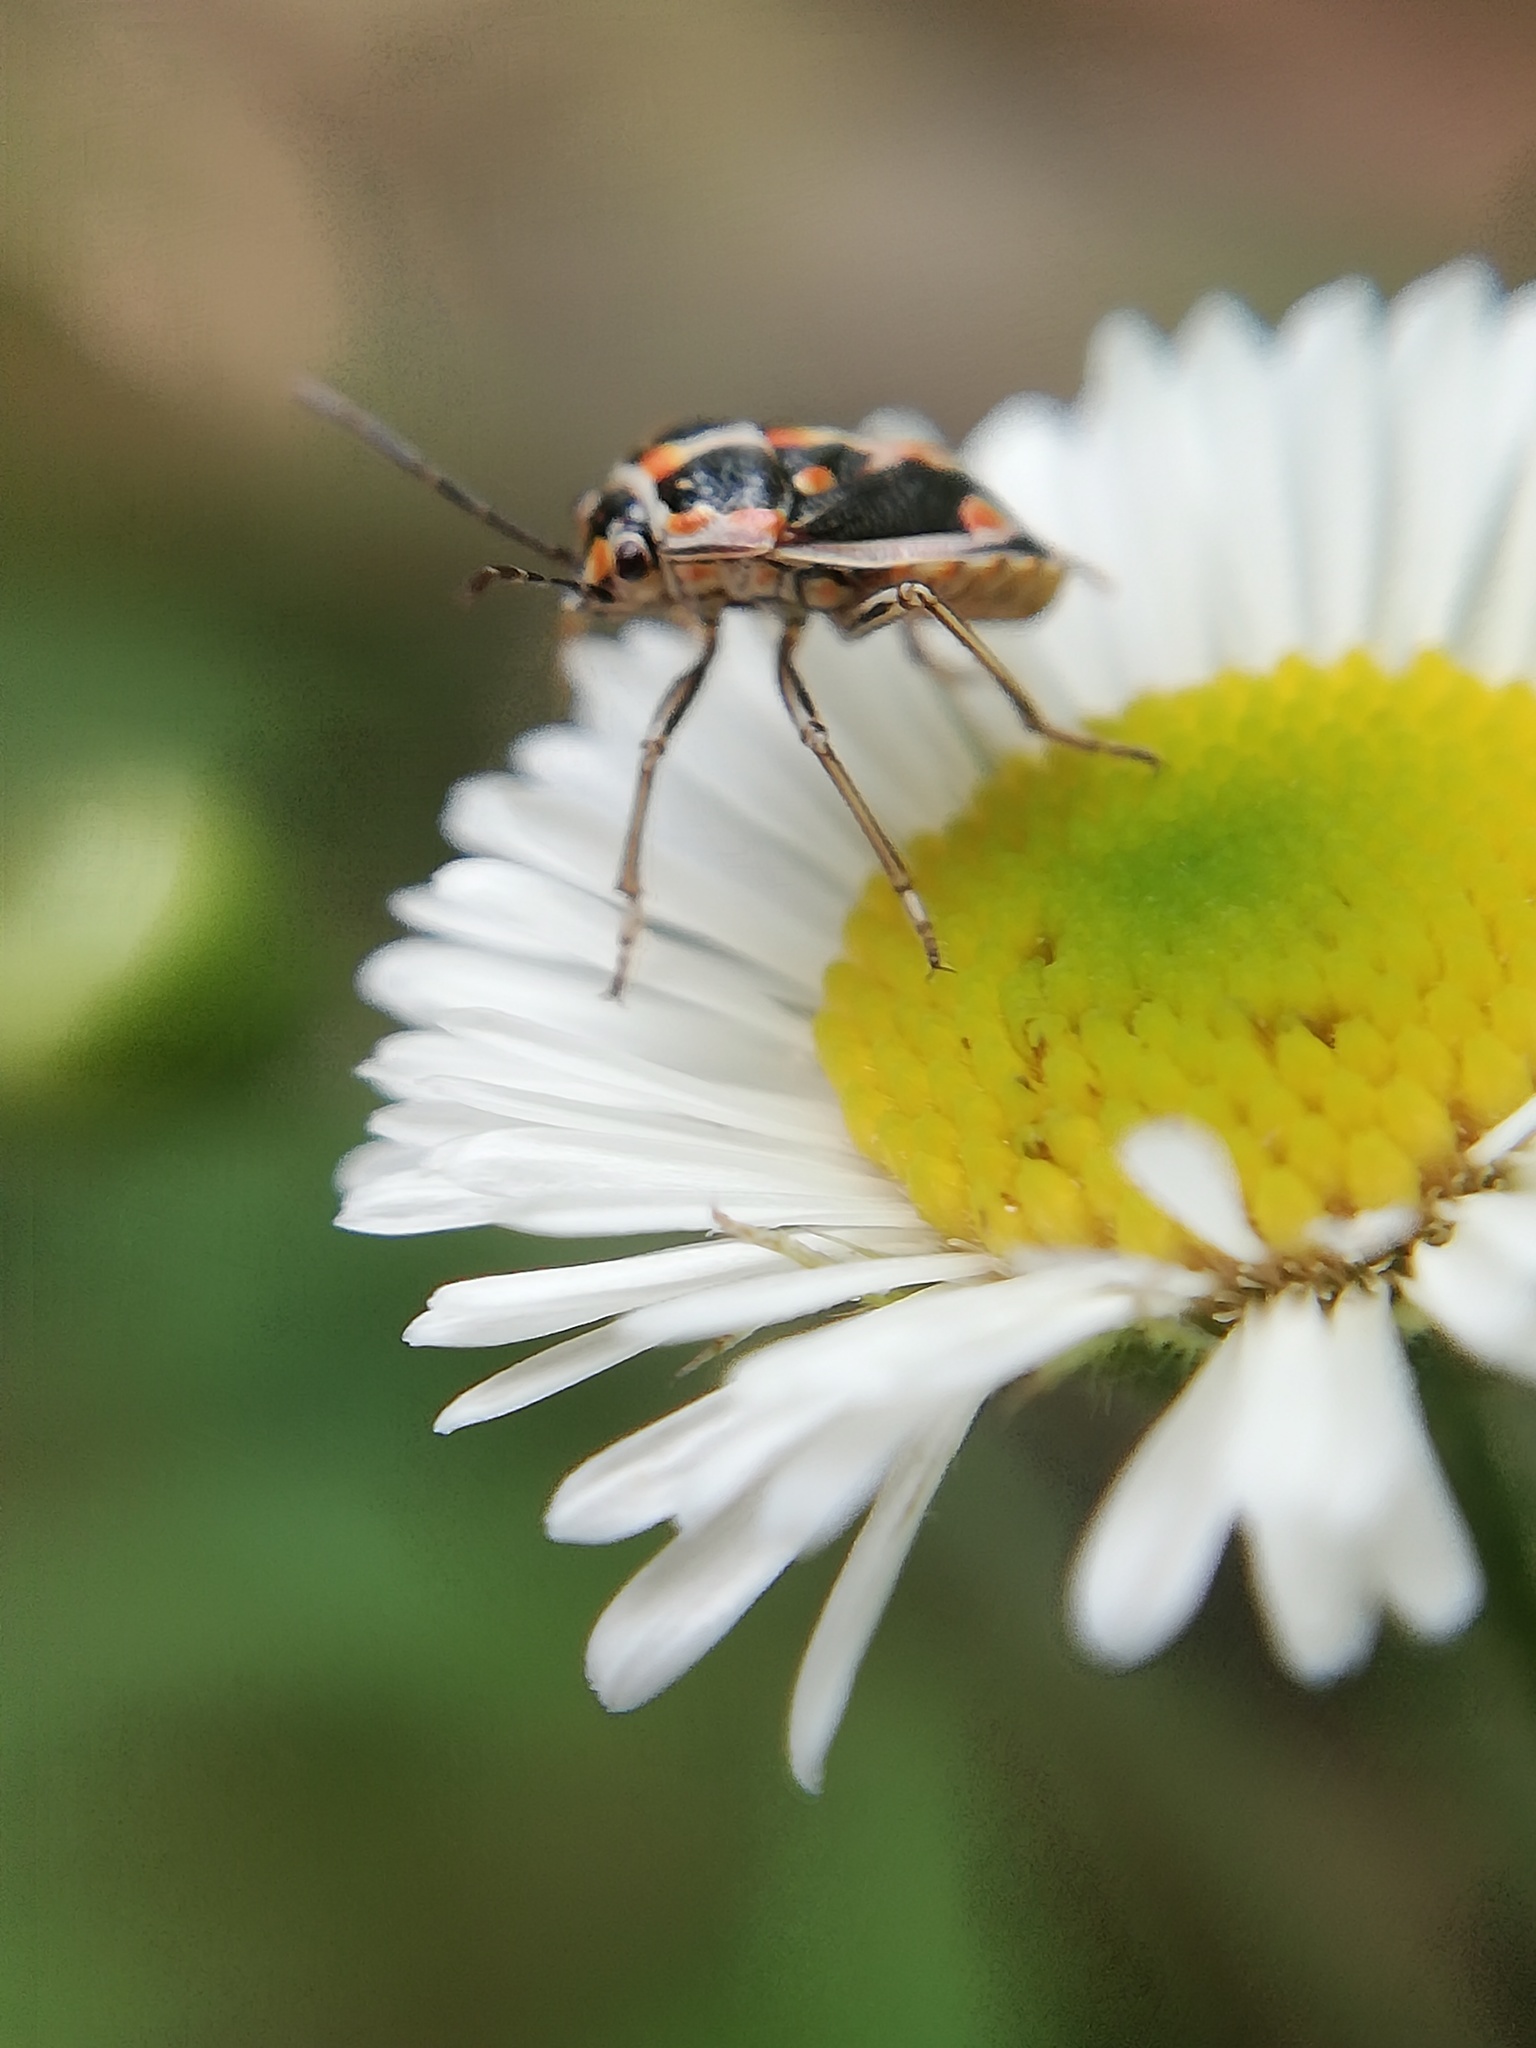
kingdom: Animalia
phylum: Arthropoda
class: Insecta
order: Hemiptera
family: Pentatomidae
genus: Bagrada
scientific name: Bagrada hilaris
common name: Bagrada bug
